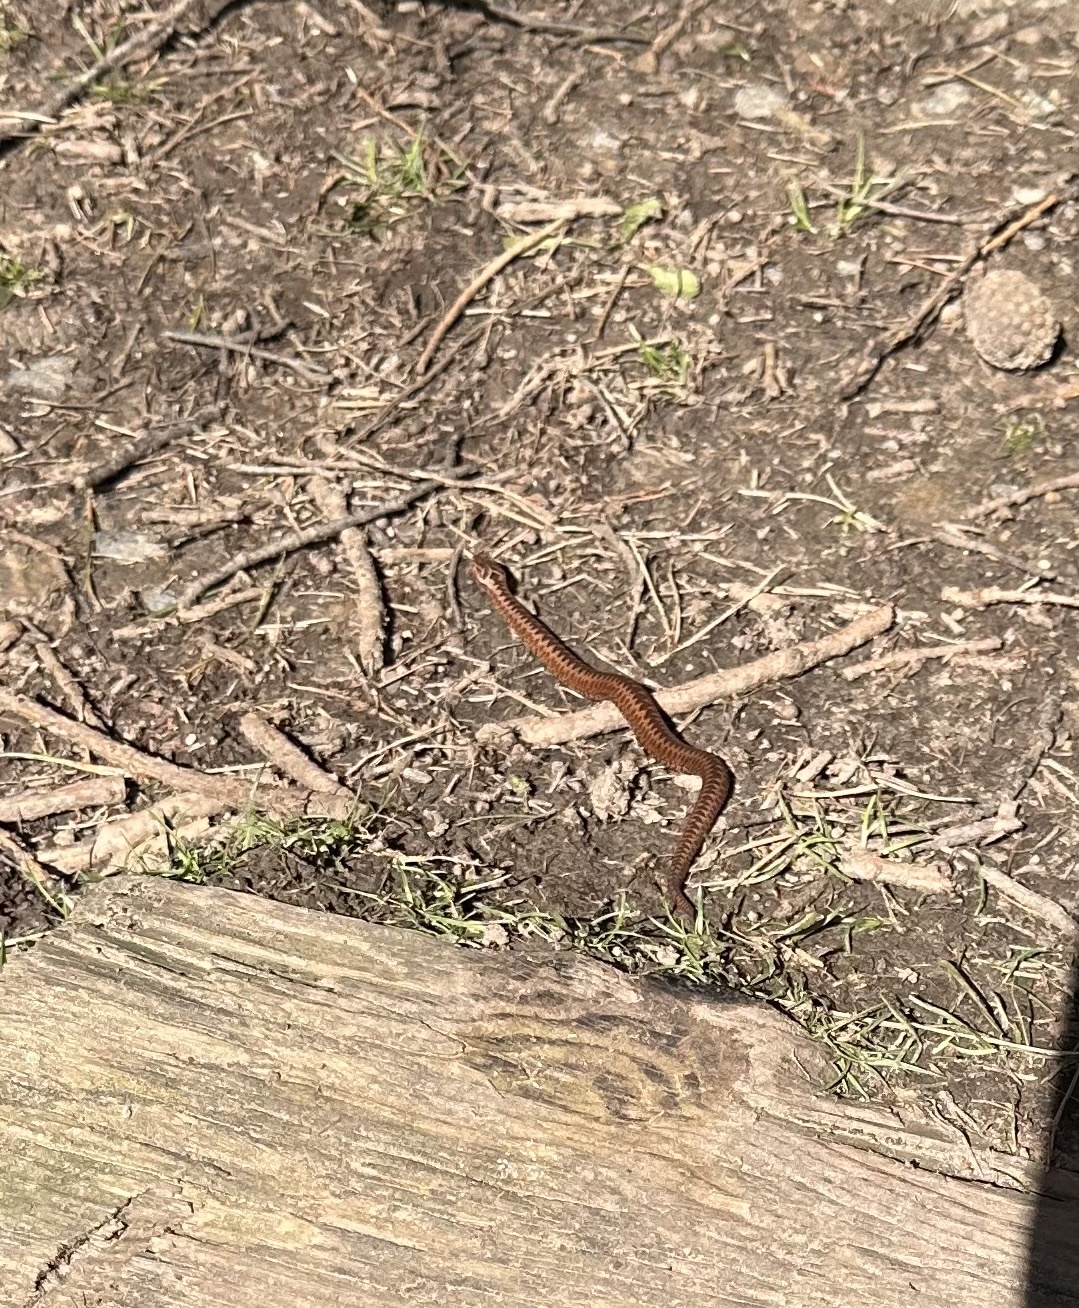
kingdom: Animalia
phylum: Chordata
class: Squamata
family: Viperidae
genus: Vipera
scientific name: Vipera berus
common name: Adder
